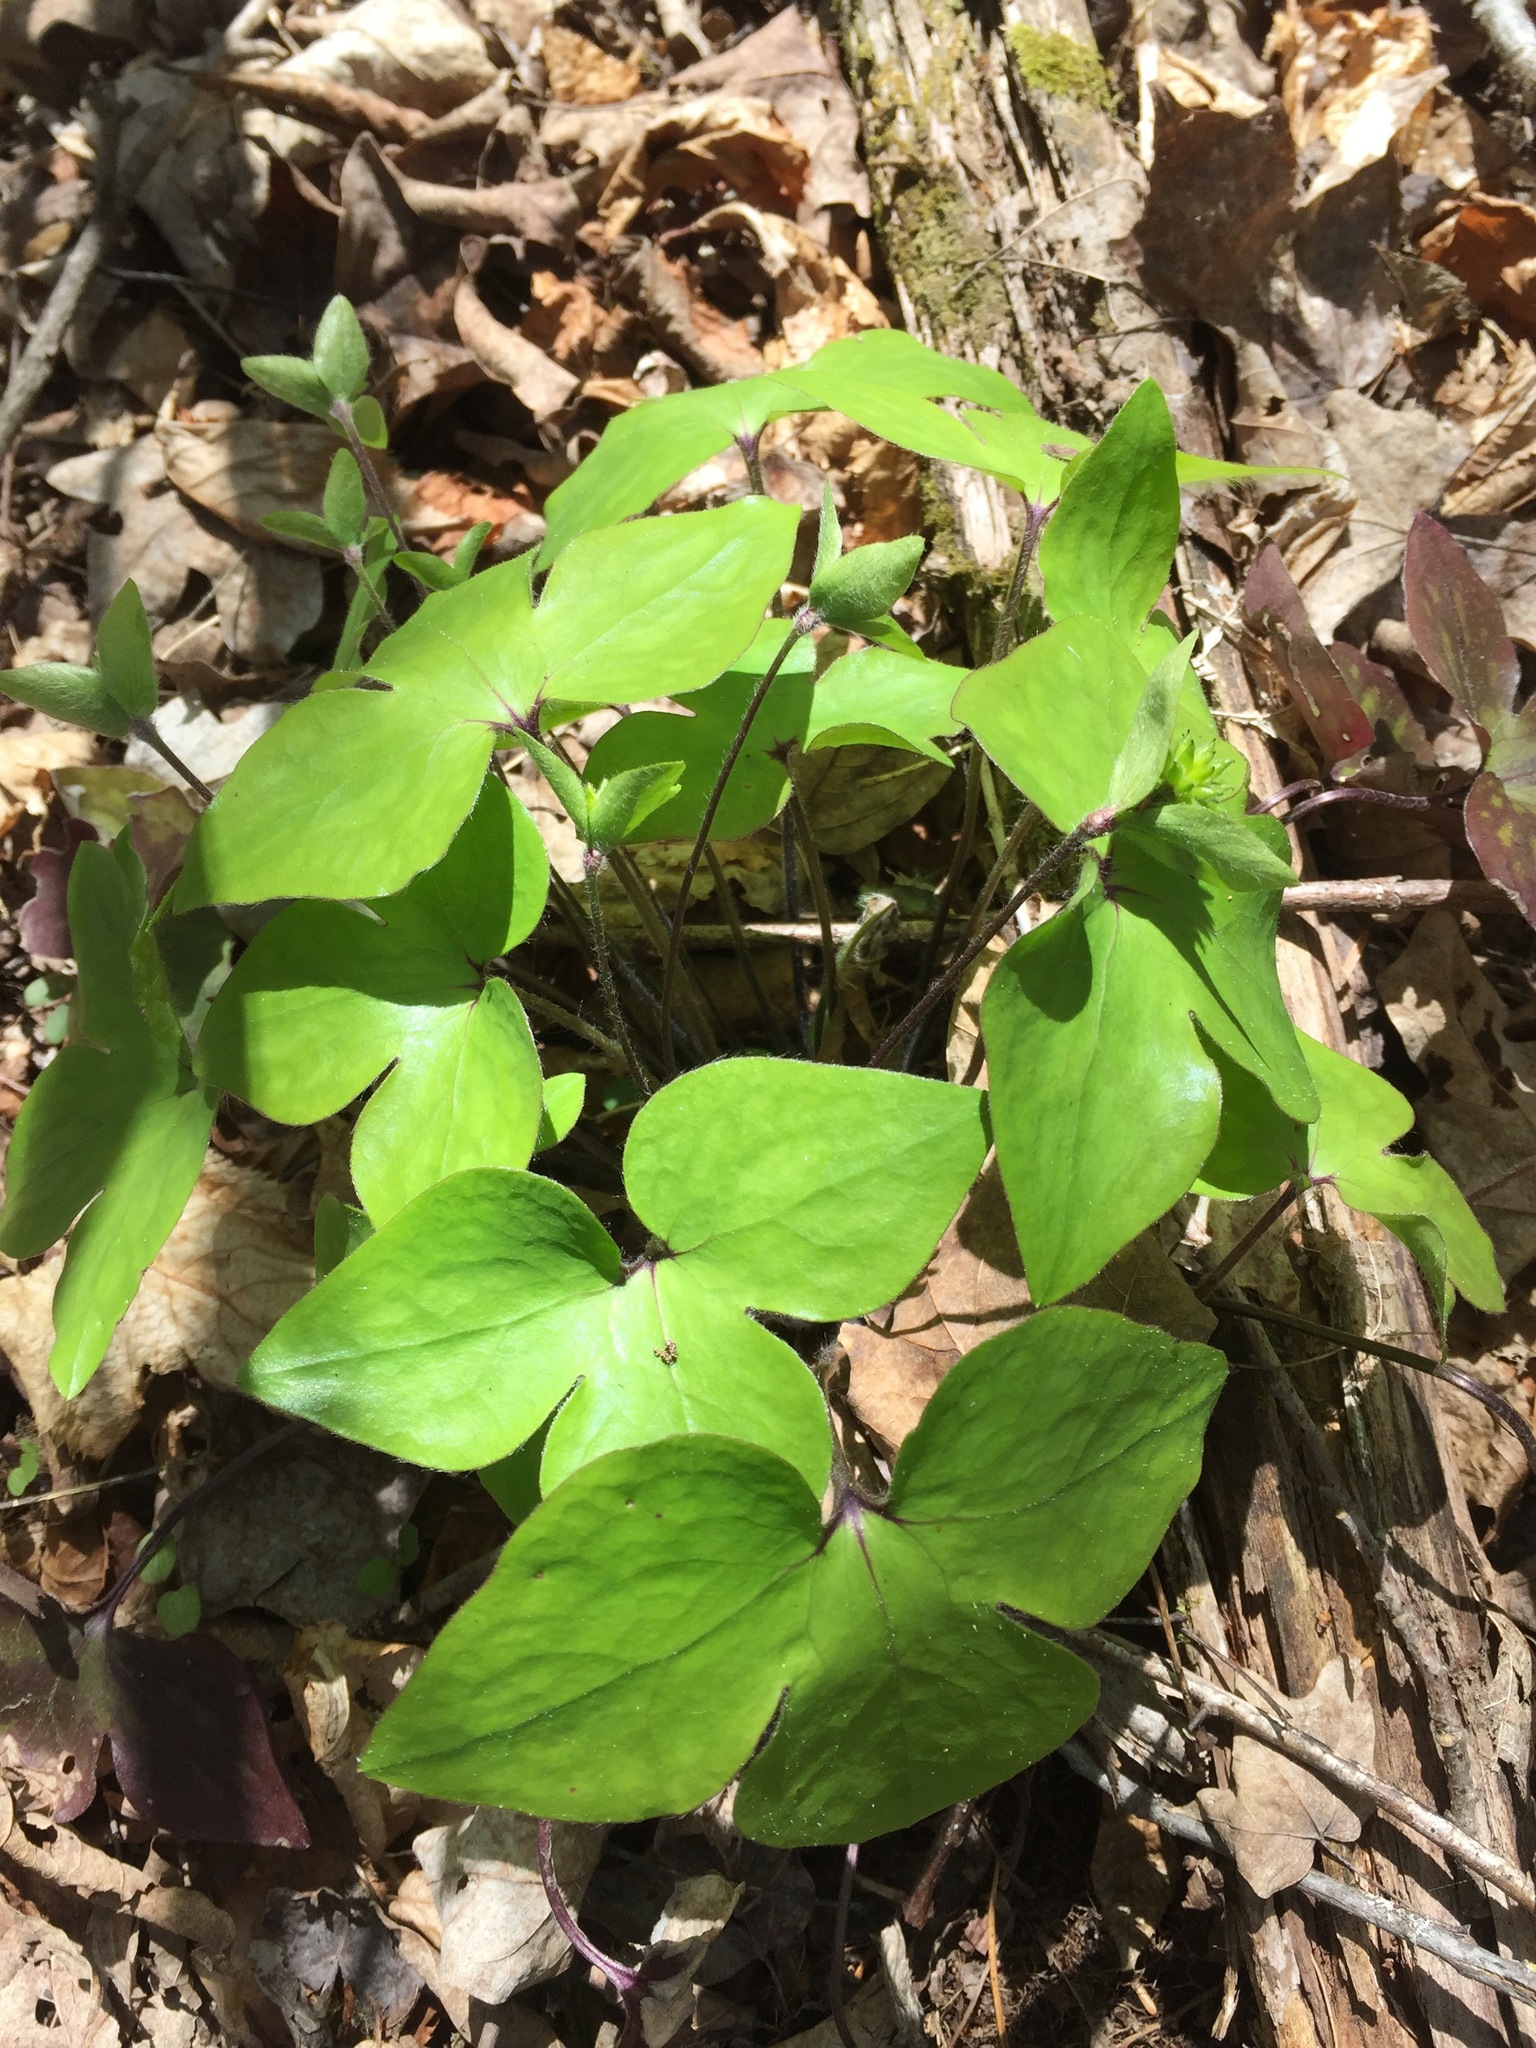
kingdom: Plantae
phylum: Tracheophyta
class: Magnoliopsida
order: Ranunculales
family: Ranunculaceae
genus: Hepatica
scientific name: Hepatica acutiloba
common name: Sharp-lobed hepatica
